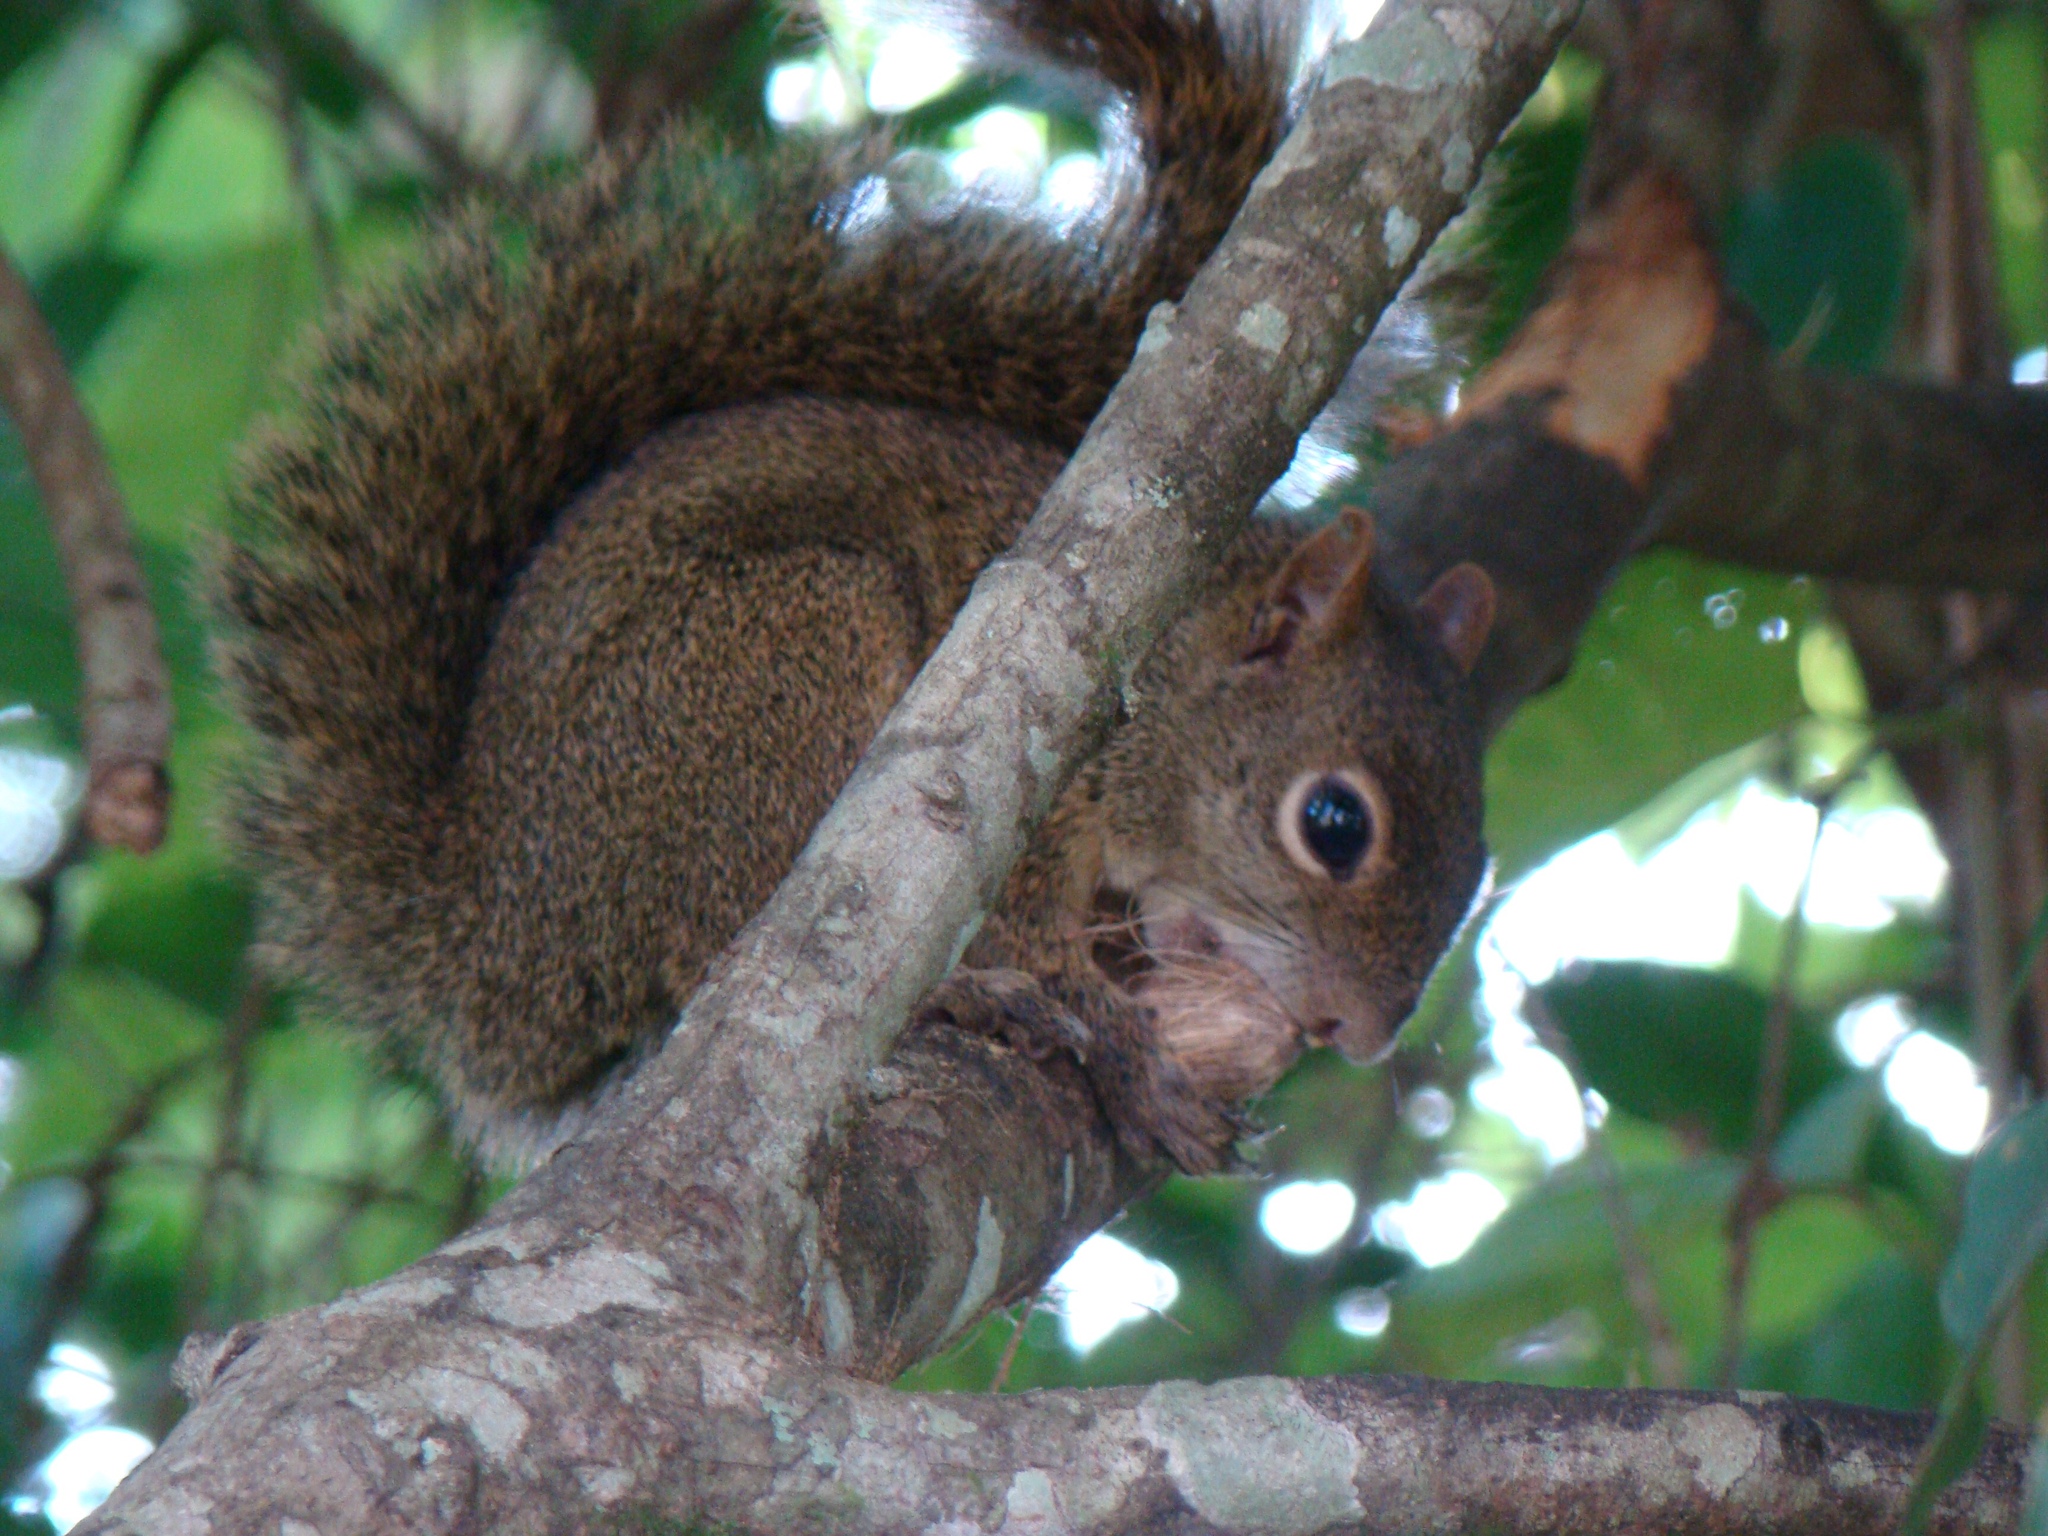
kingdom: Animalia
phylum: Chordata
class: Mammalia
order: Rodentia
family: Sciuridae
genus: Sciurus
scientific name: Sciurus aestuans
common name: Guianan squirrel
